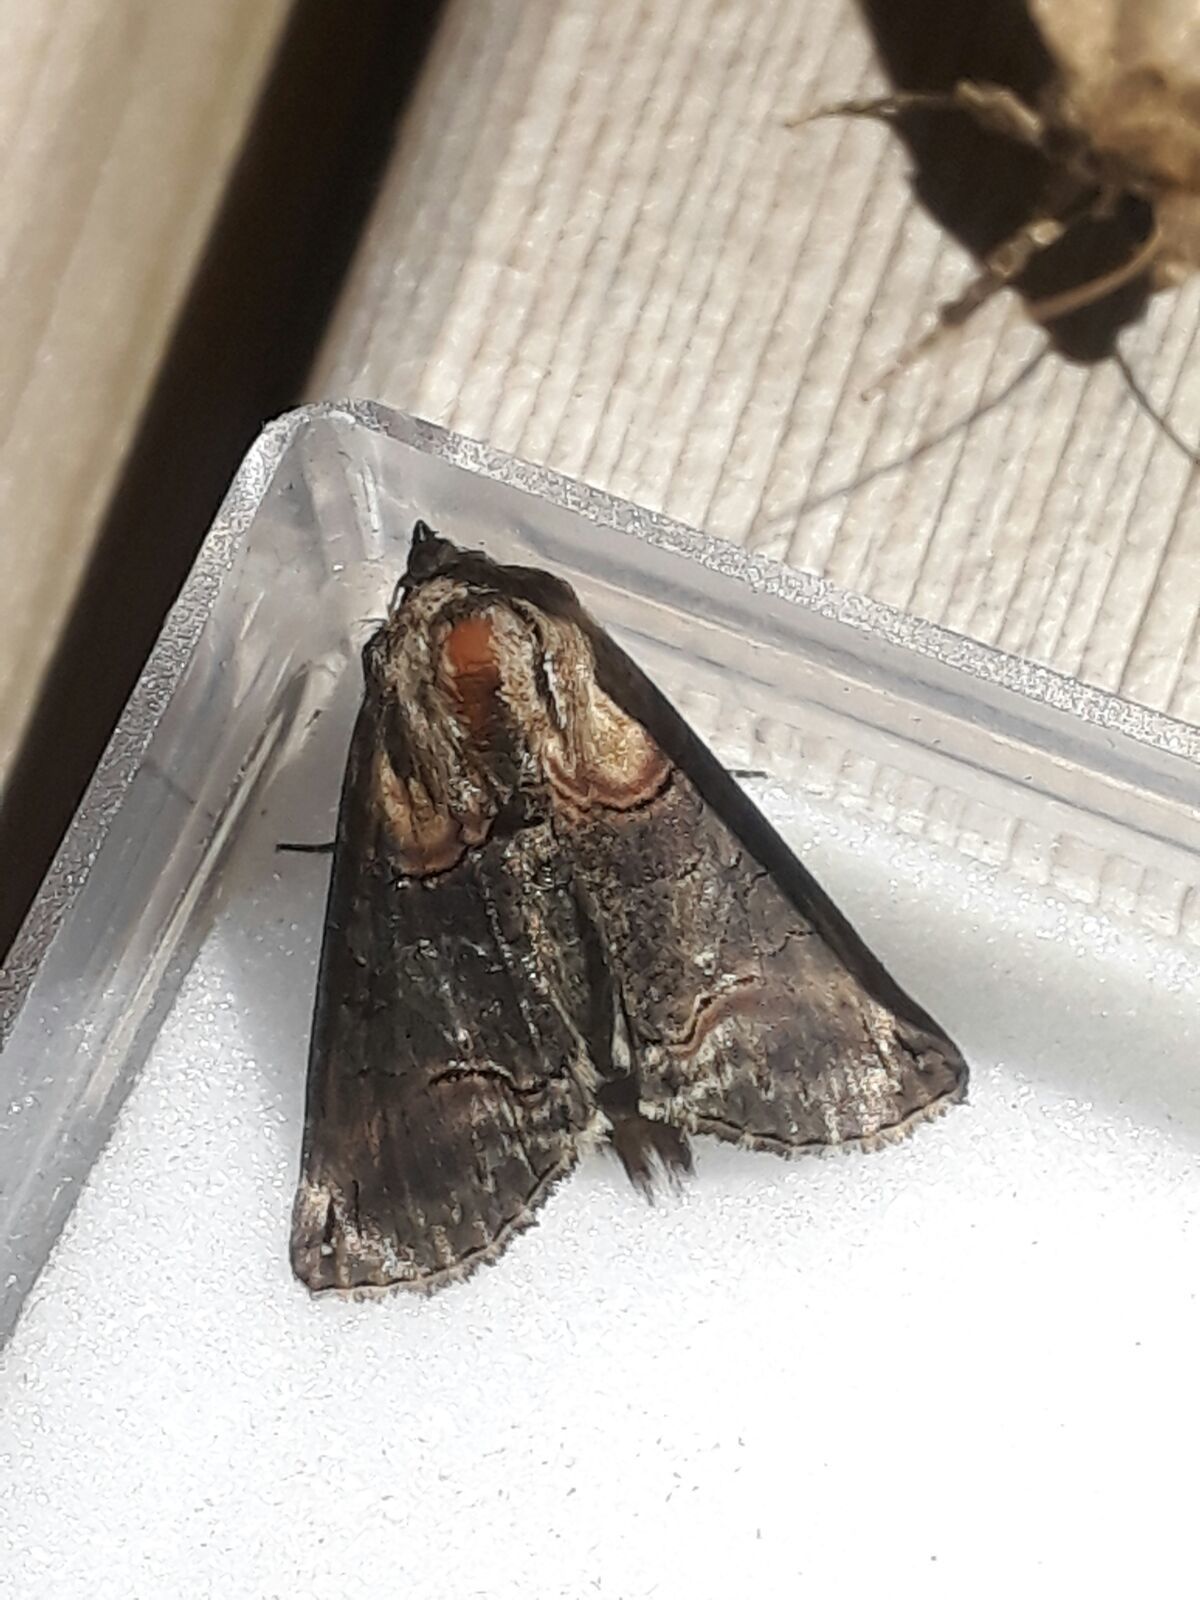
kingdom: Animalia
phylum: Arthropoda
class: Insecta
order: Lepidoptera
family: Noctuidae
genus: Abrostola
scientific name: Abrostola triplasia
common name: Dark spectacle
